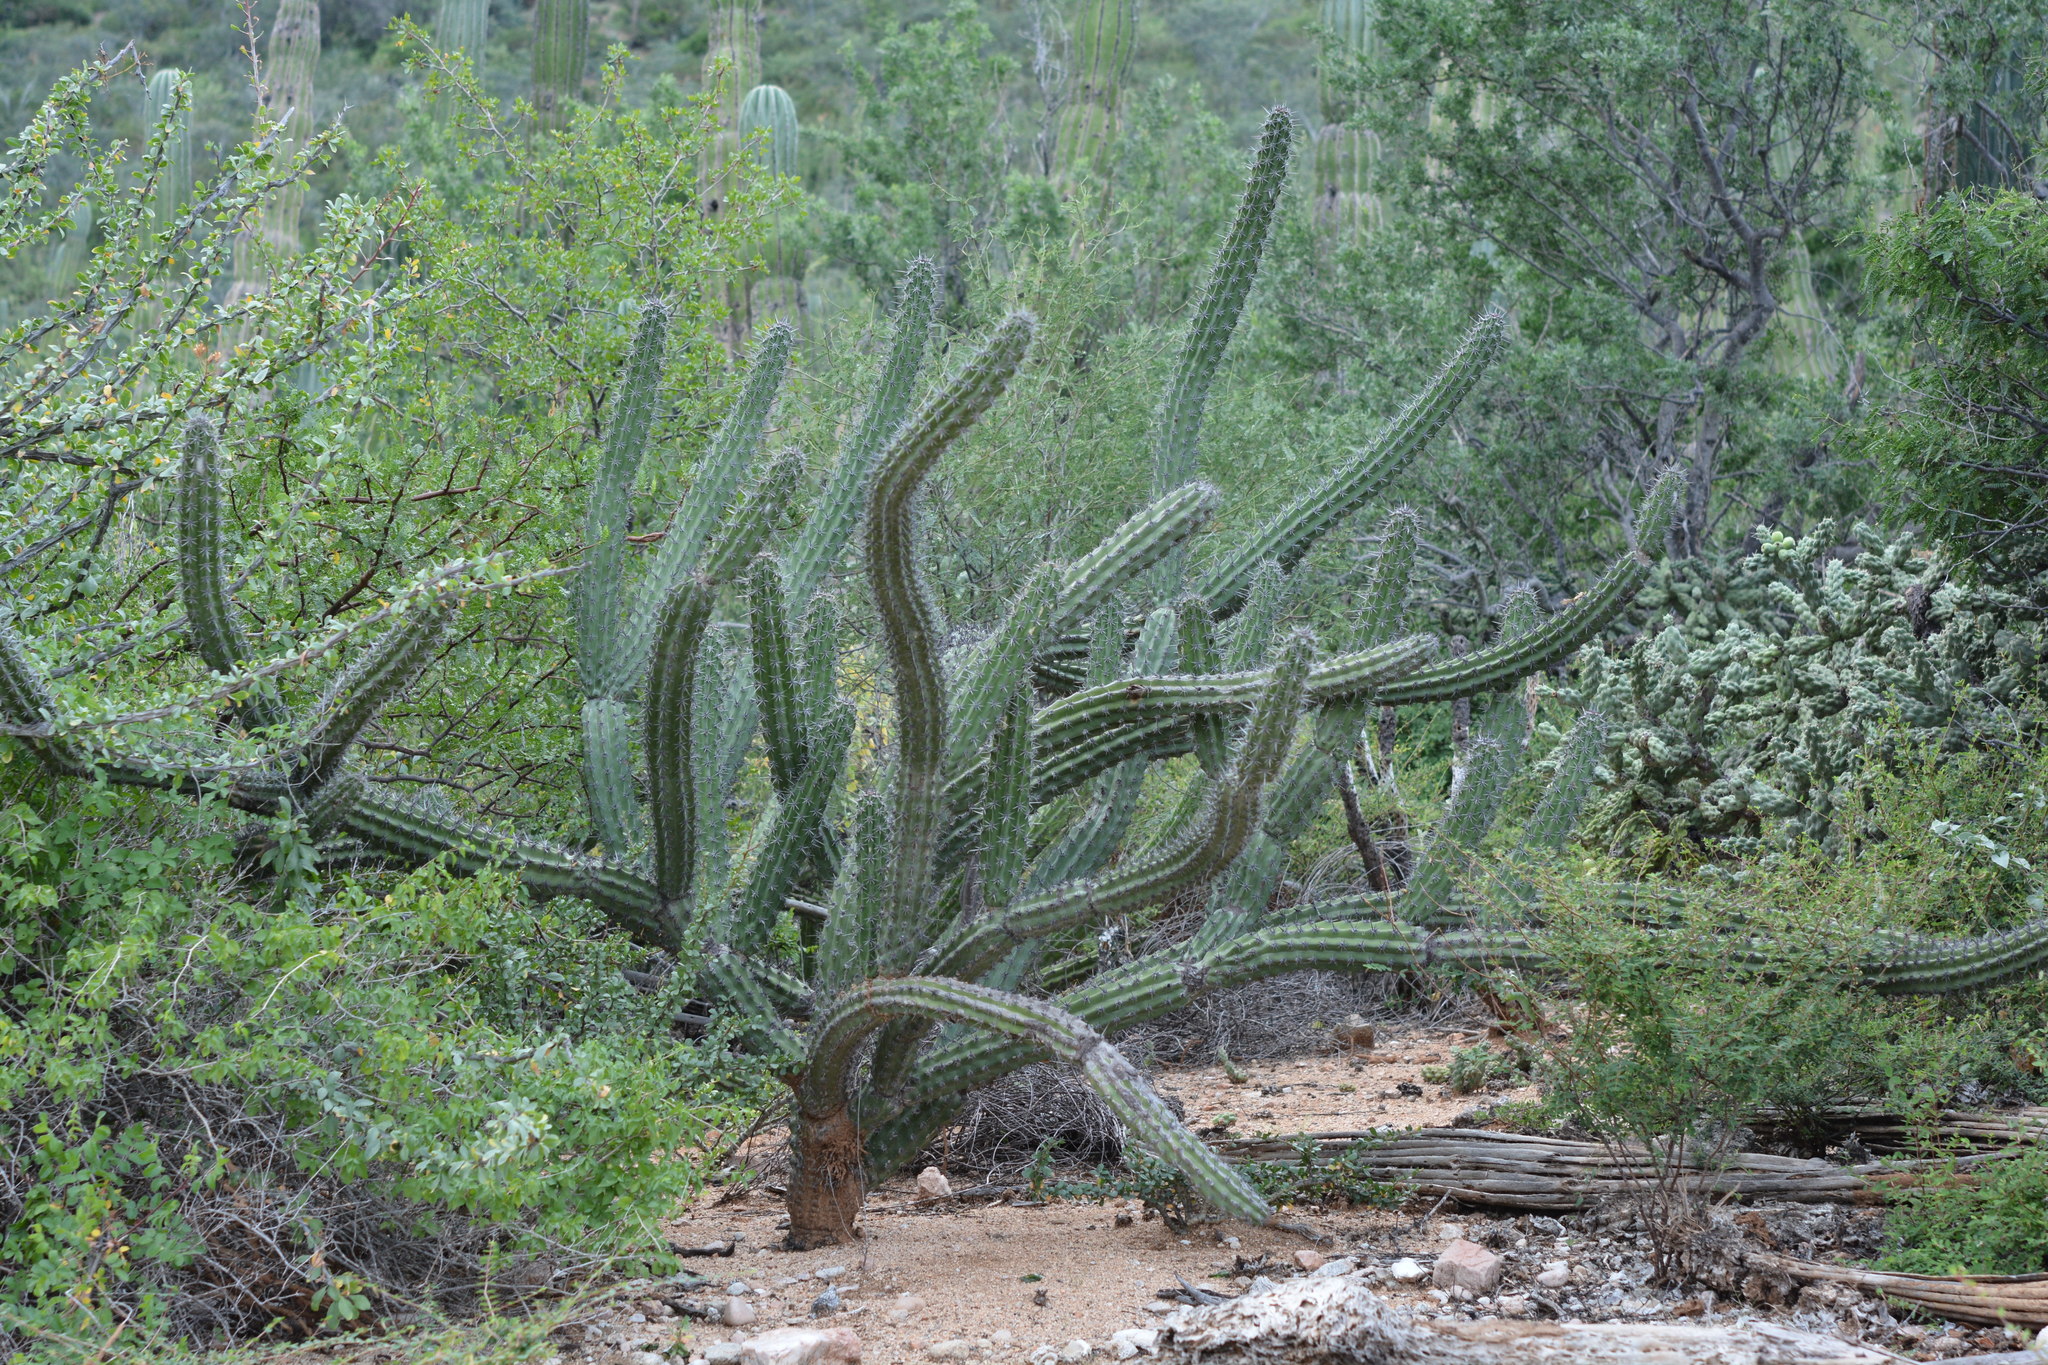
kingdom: Plantae
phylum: Tracheophyta
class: Magnoliopsida
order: Caryophyllales
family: Cactaceae
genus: Stenocereus
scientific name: Stenocereus gummosus
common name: Dagger cactus
